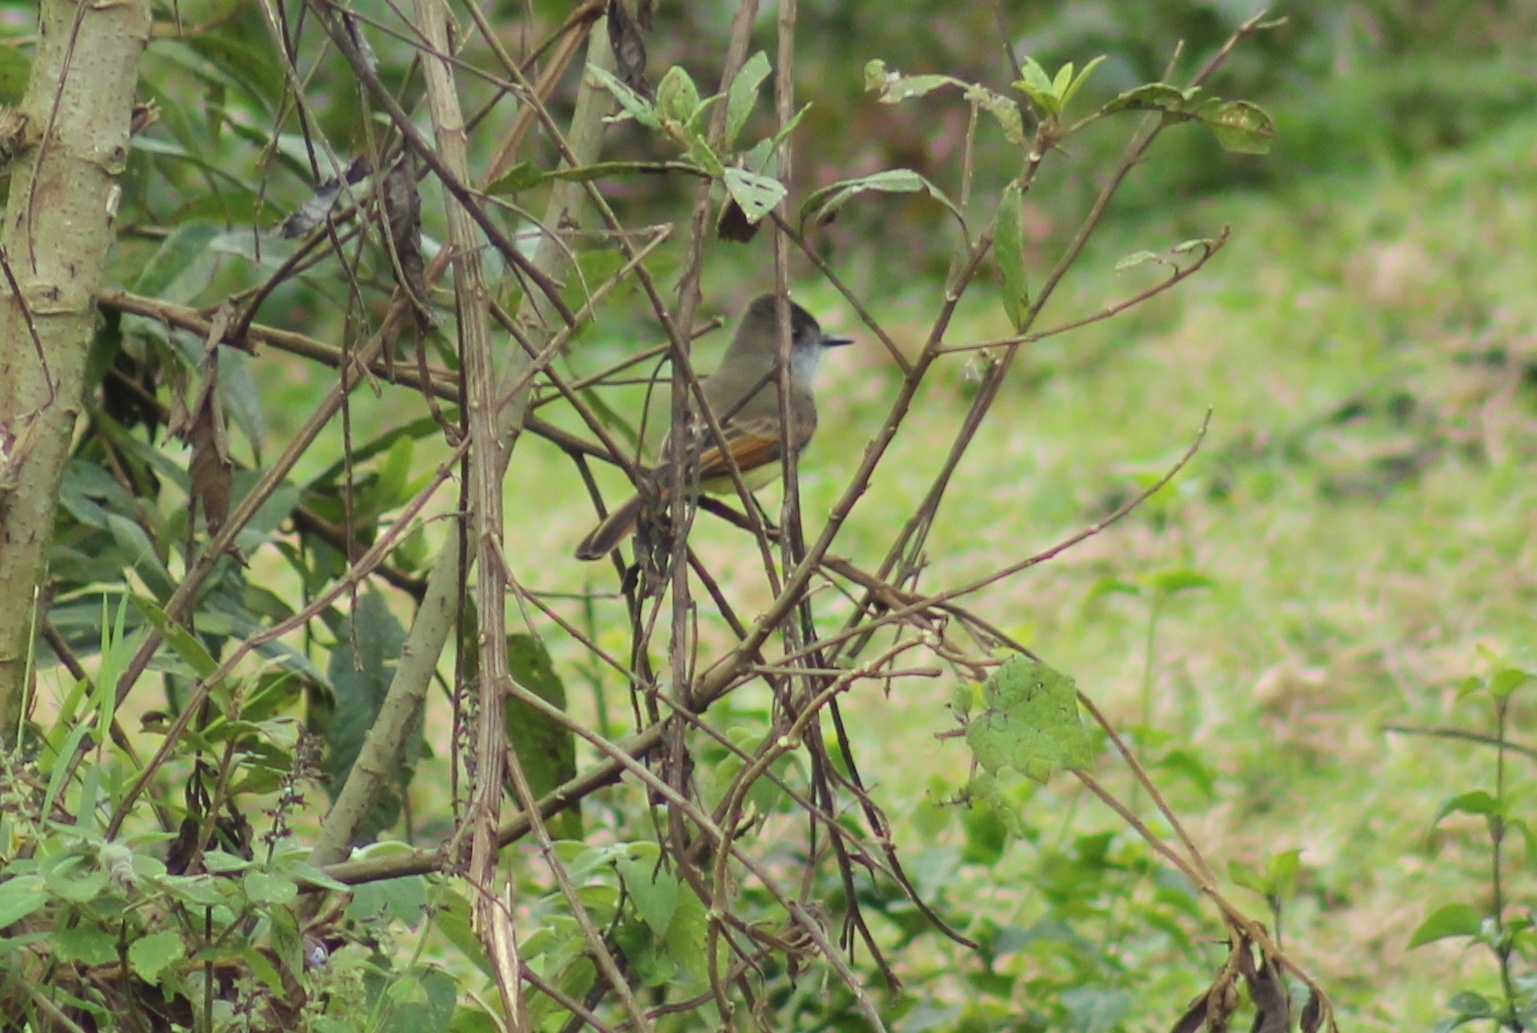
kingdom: Animalia
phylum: Chordata
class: Aves
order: Passeriformes
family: Tyrannidae
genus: Myiarchus
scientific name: Myiarchus tuberculifer
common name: Dusky-capped flycatcher
